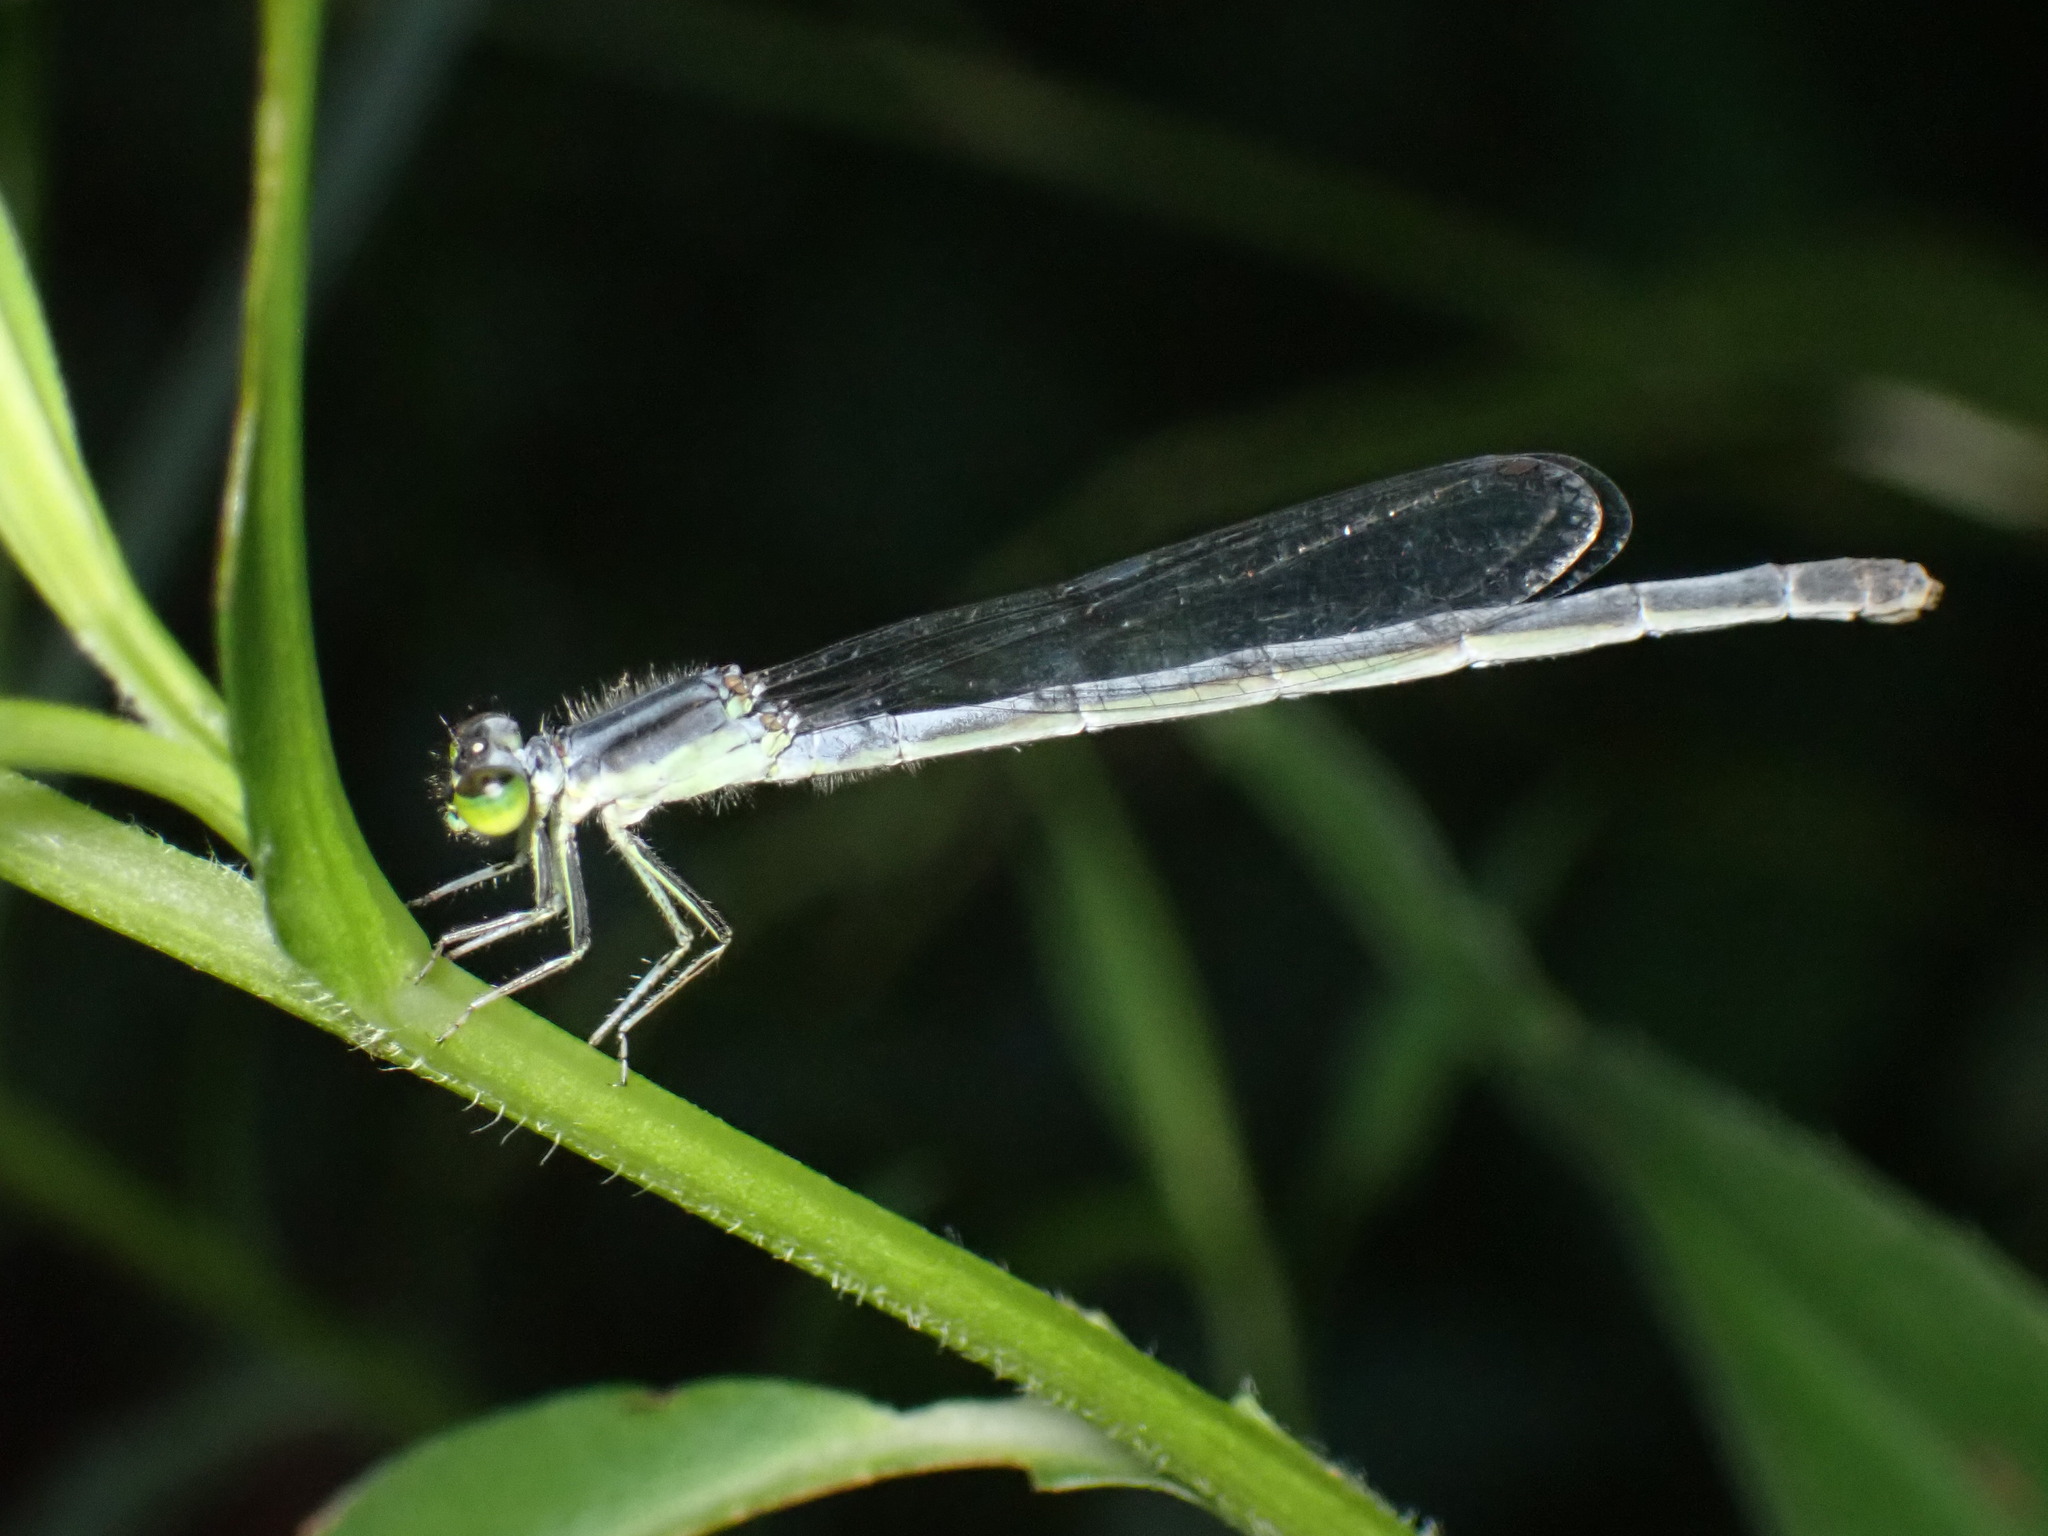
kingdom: Animalia
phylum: Arthropoda
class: Insecta
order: Odonata
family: Coenagrionidae
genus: Ischnura
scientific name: Ischnura verticalis
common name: Eastern forktail
